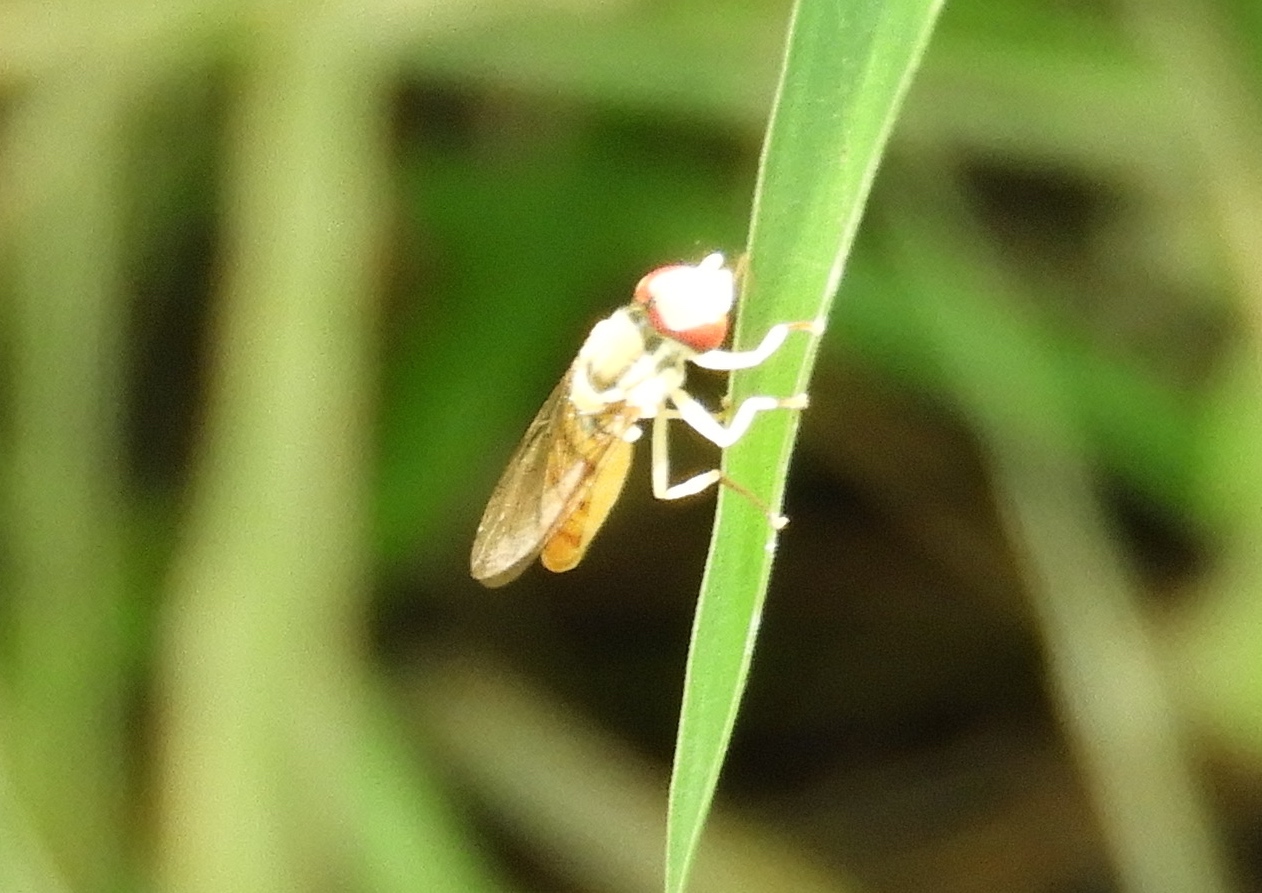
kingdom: Animalia
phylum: Arthropoda
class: Insecta
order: Diptera
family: Syrphidae
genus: Toxomerus
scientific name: Toxomerus politus
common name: Maize calligrapher
